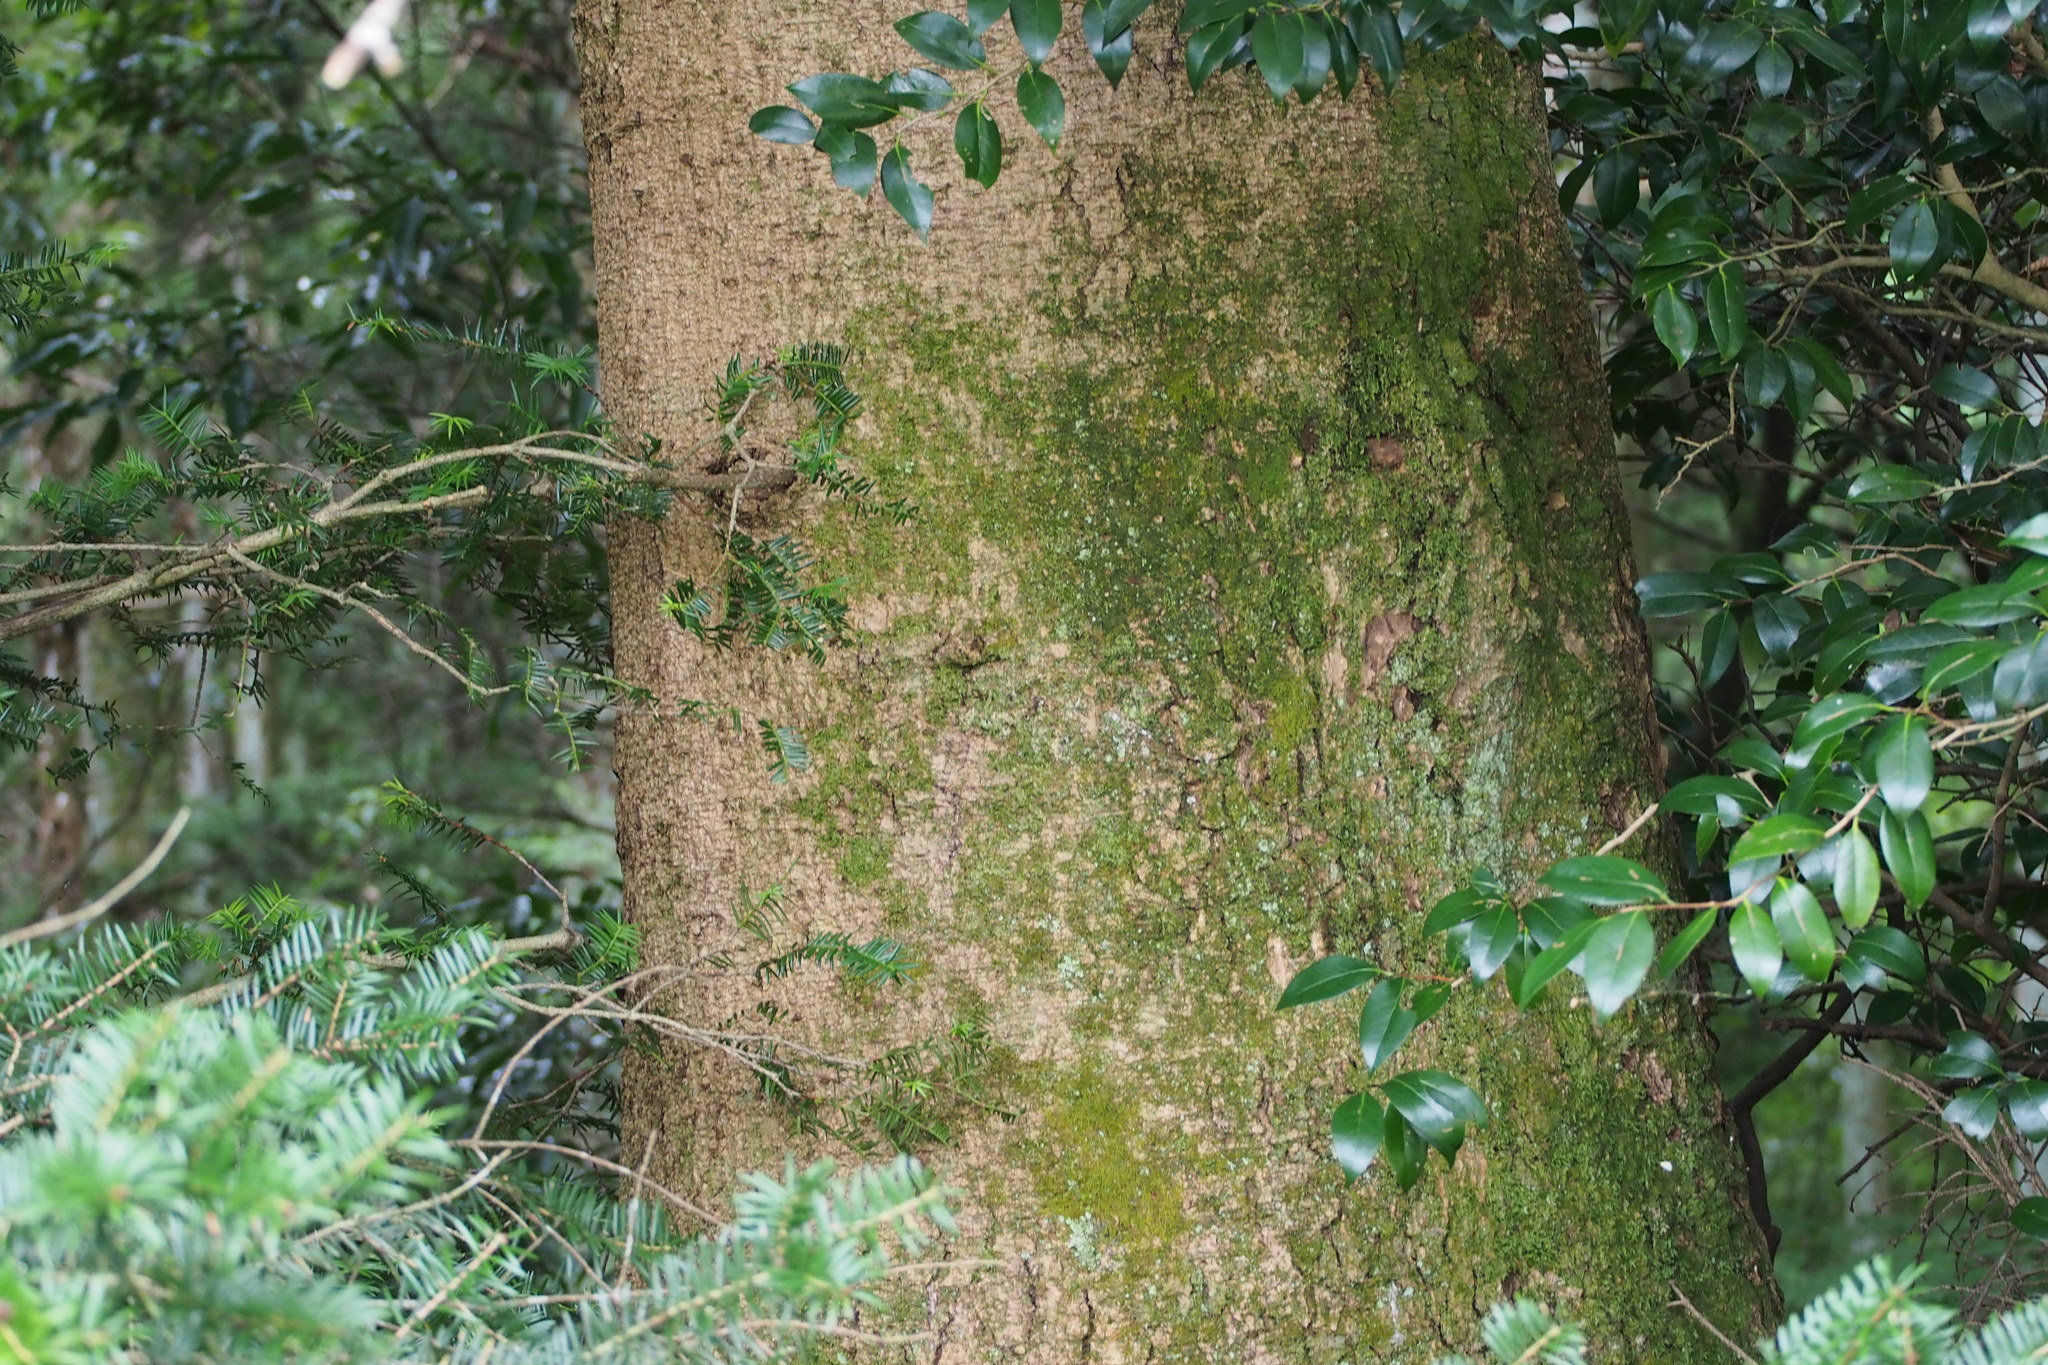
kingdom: Plantae
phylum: Tracheophyta
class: Pinopsida
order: Pinales
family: Pinaceae
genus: Abies
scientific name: Abies firma
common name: Momi fir
